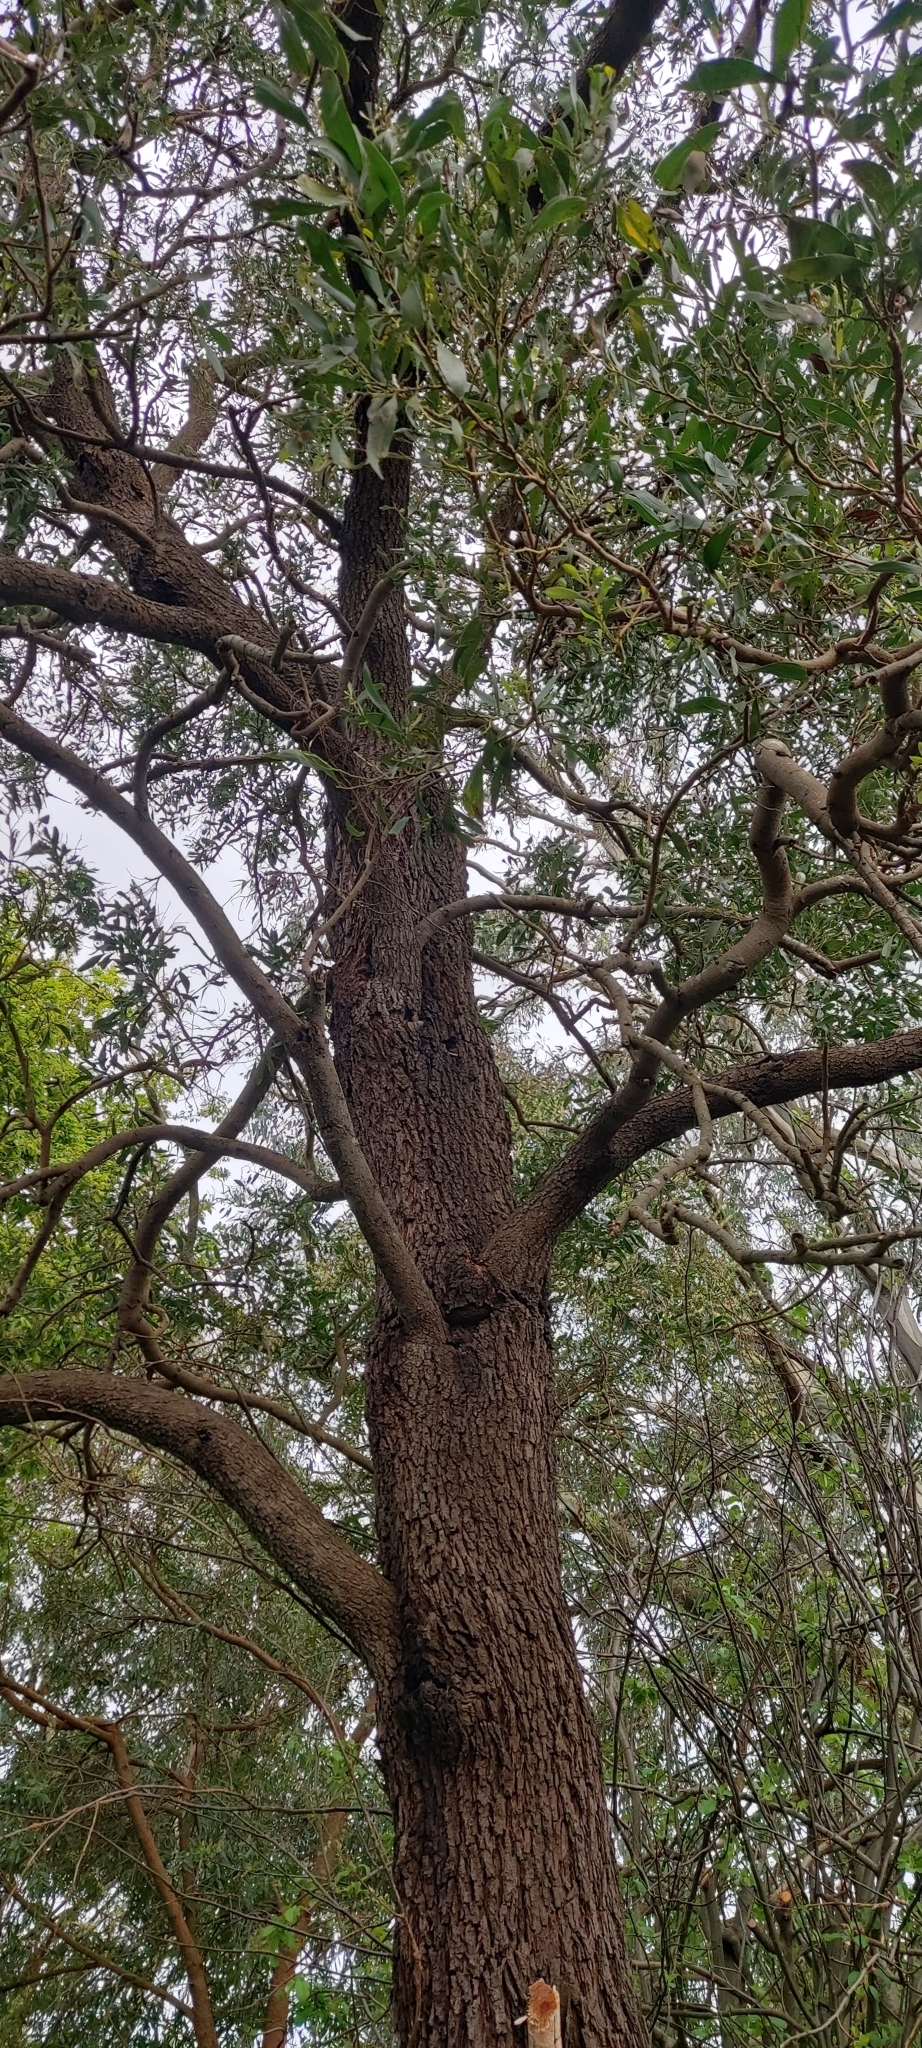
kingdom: Plantae
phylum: Tracheophyta
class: Magnoliopsida
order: Fabales
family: Fabaceae
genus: Acacia
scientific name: Acacia melanoxylon
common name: Blackwood
